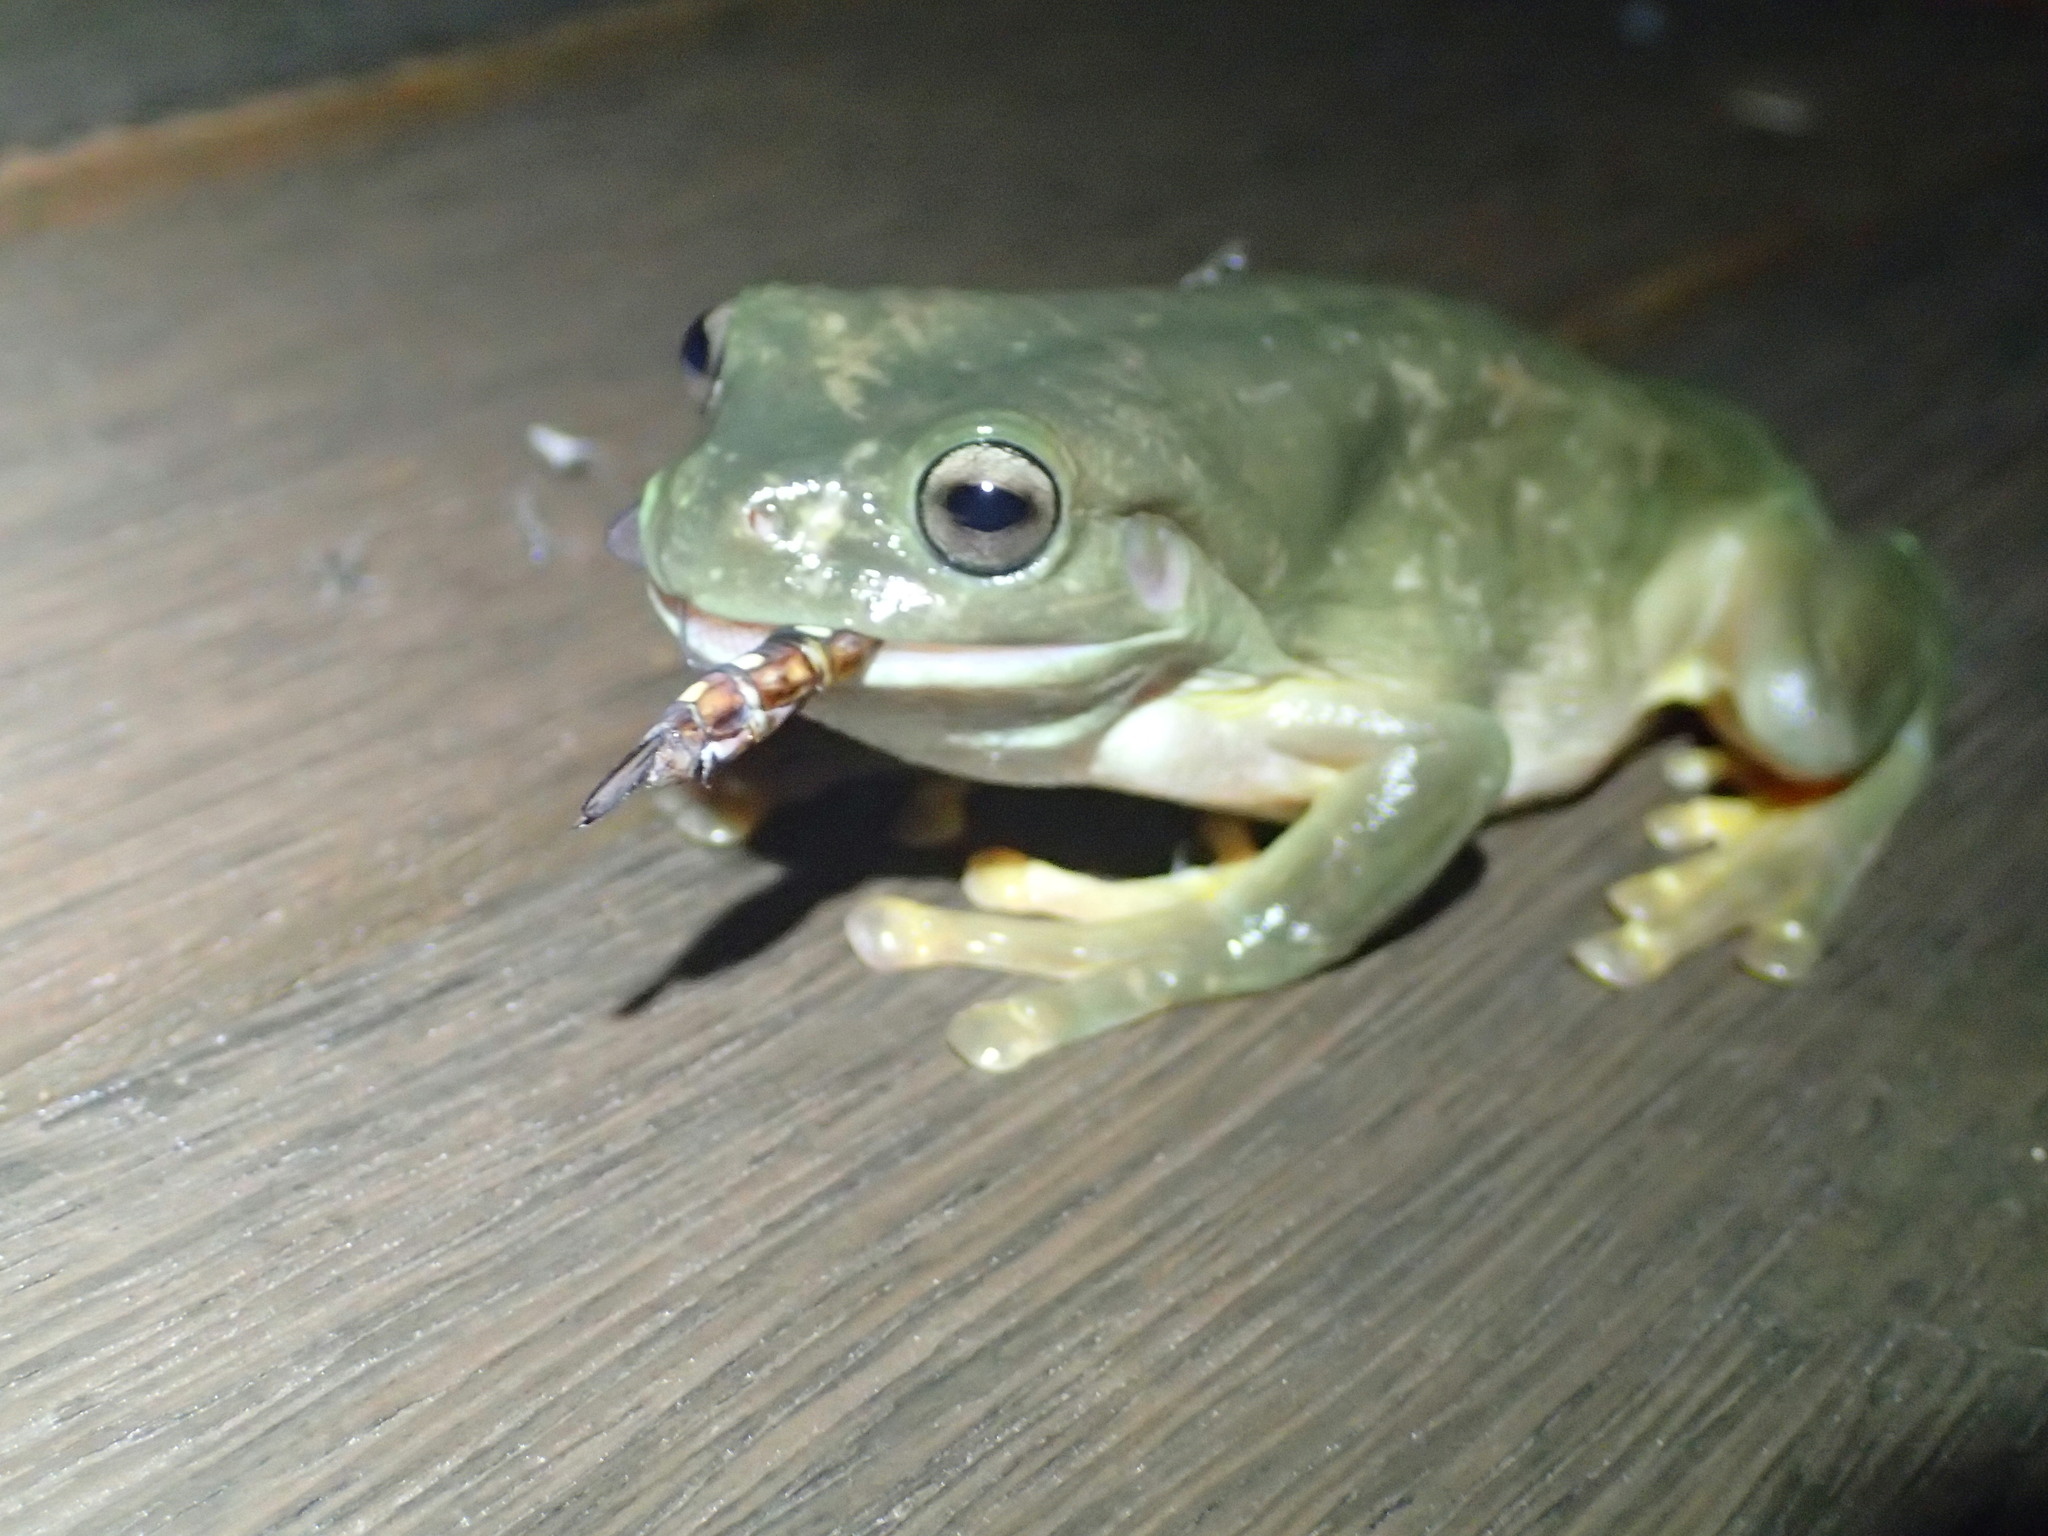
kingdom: Animalia
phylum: Chordata
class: Amphibia
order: Anura
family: Pelodryadidae
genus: Ranoidea
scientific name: Ranoidea caerulea
